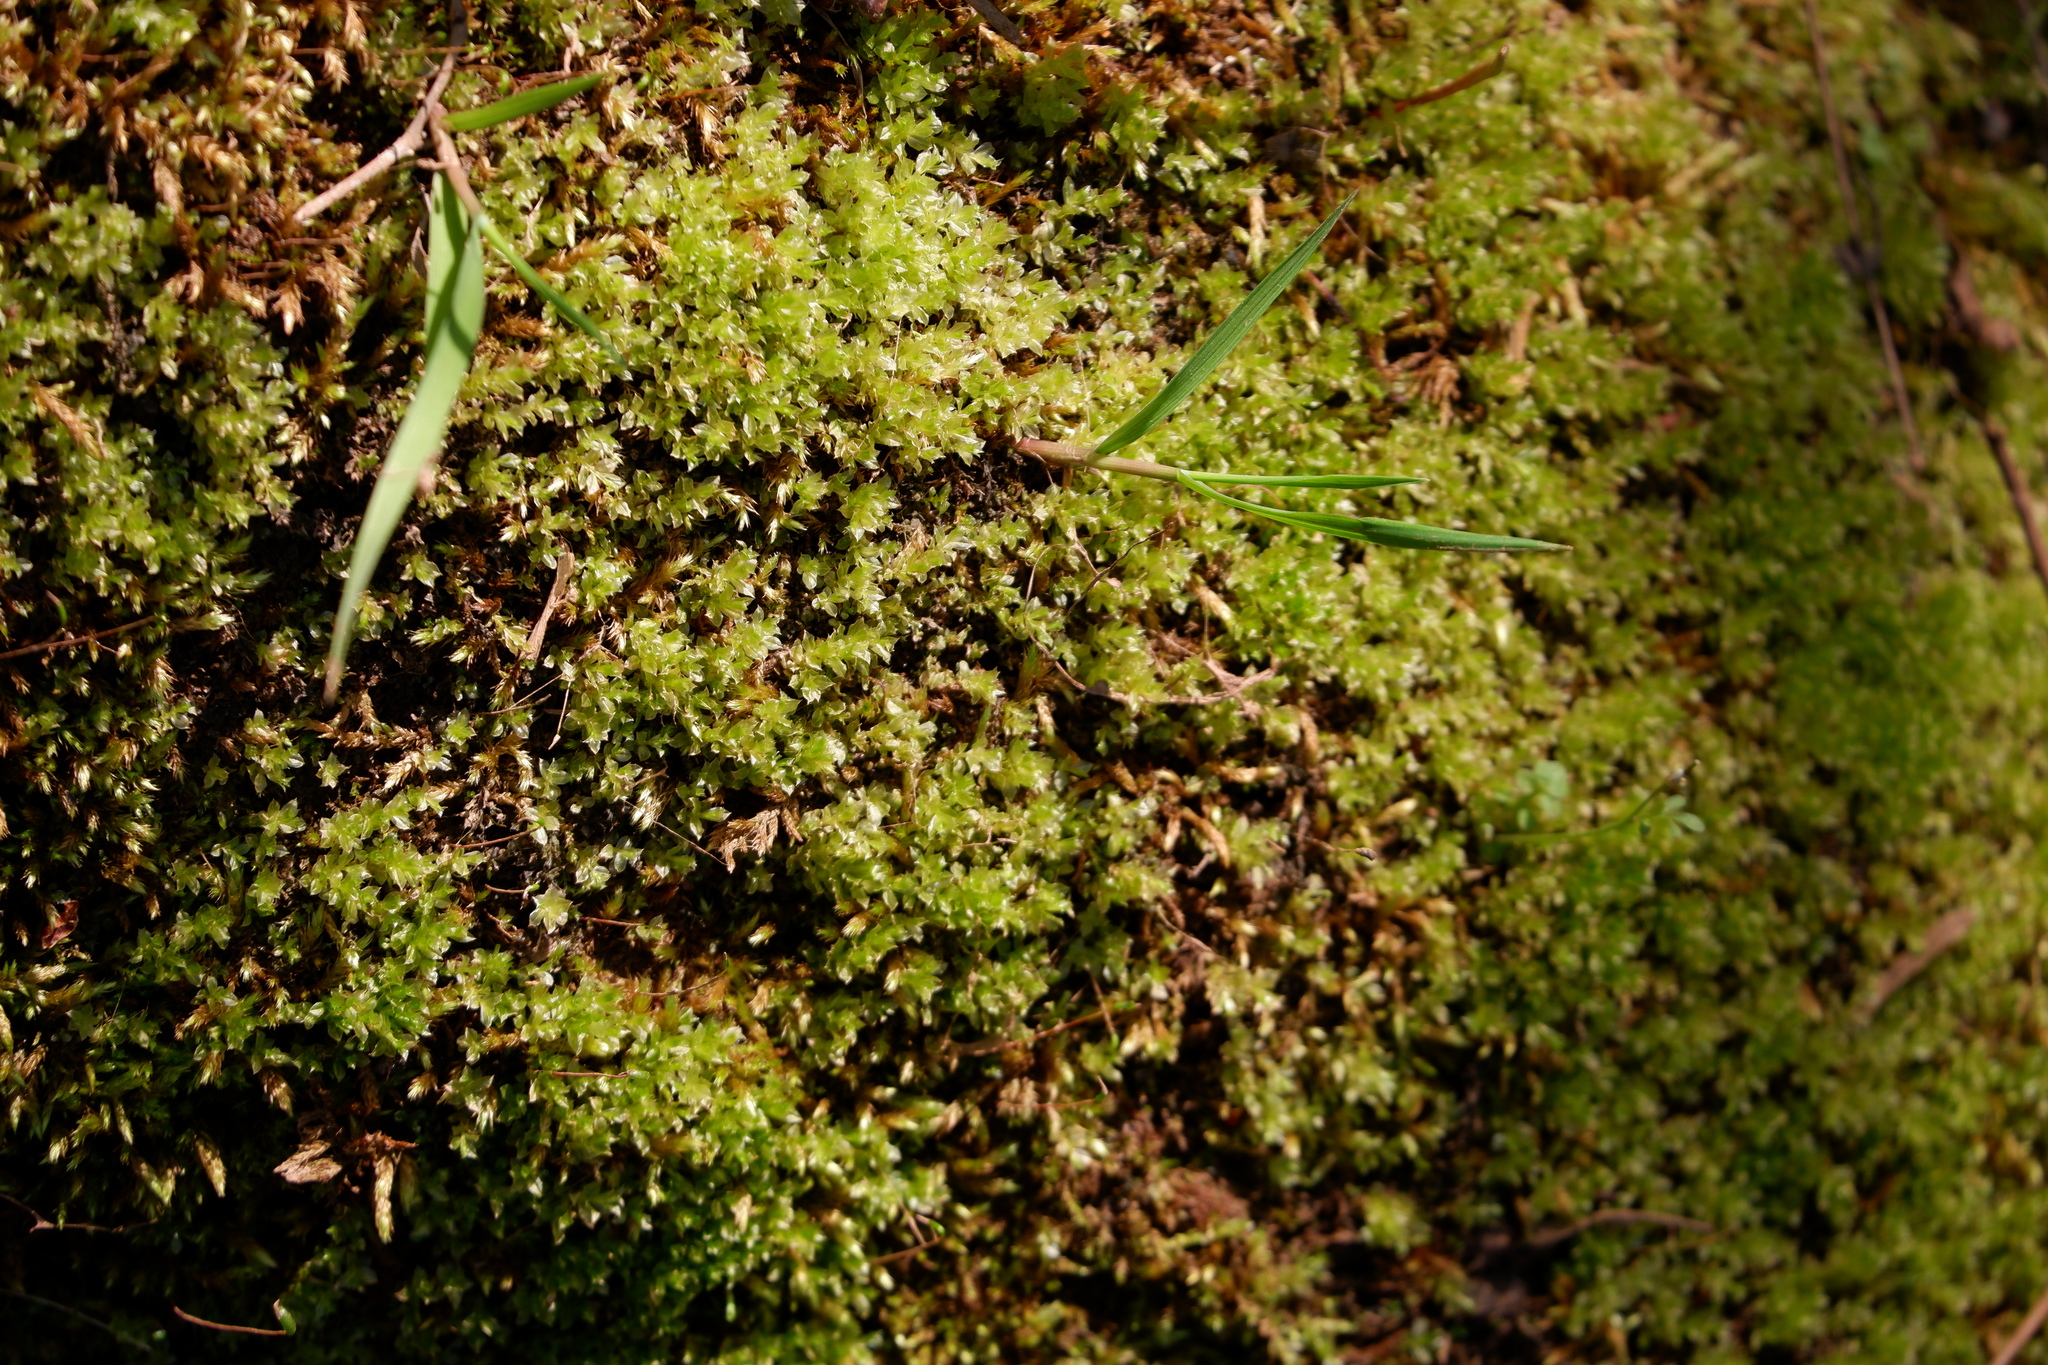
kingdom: Plantae
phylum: Bryophyta
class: Bryopsida
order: Bryales
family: Mniaceae
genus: Plagiomnium
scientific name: Plagiomnium cuspidatum
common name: Woodsy leafy moss
